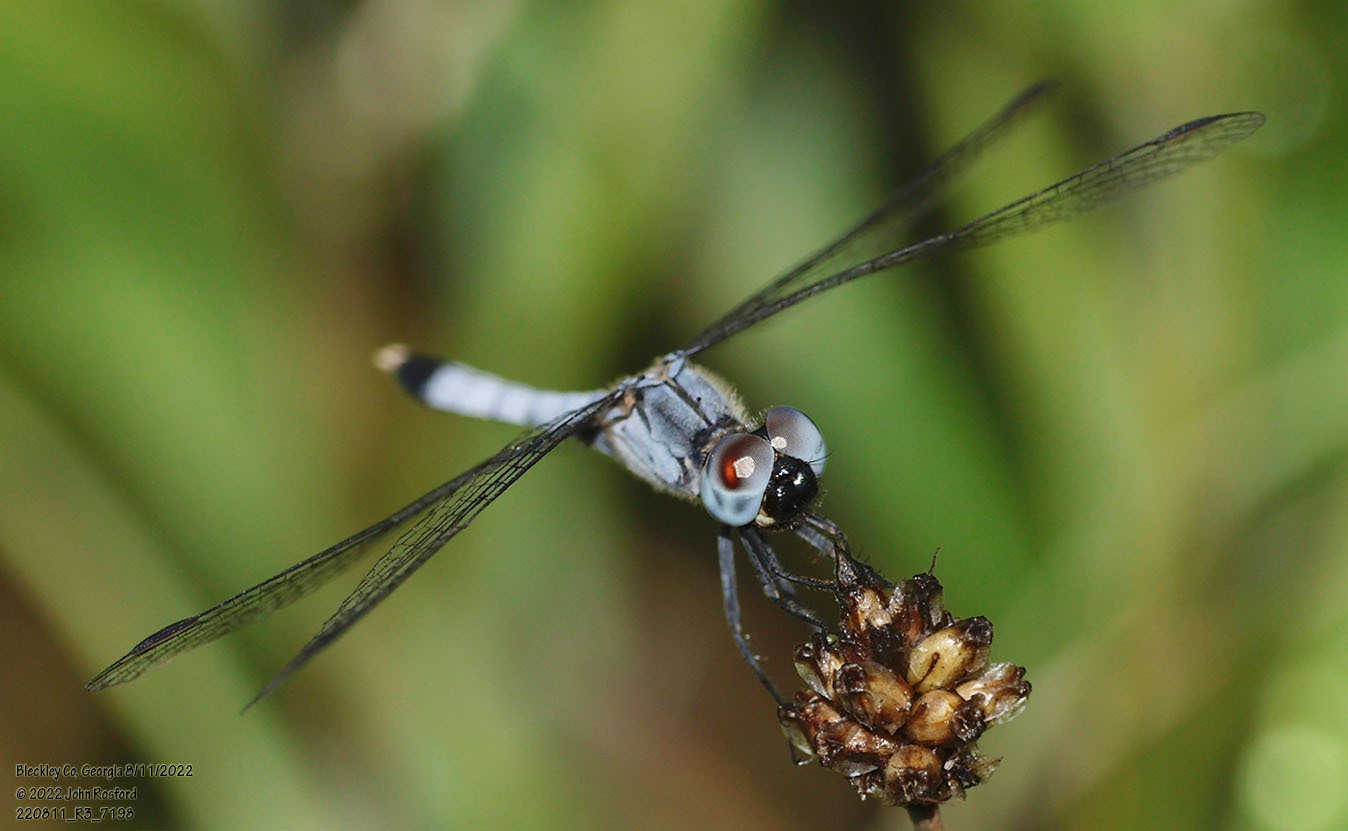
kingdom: Animalia
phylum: Arthropoda
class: Insecta
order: Odonata
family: Libellulidae
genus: Erythrodiplax
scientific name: Erythrodiplax minuscula
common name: Little blue dragonlet
